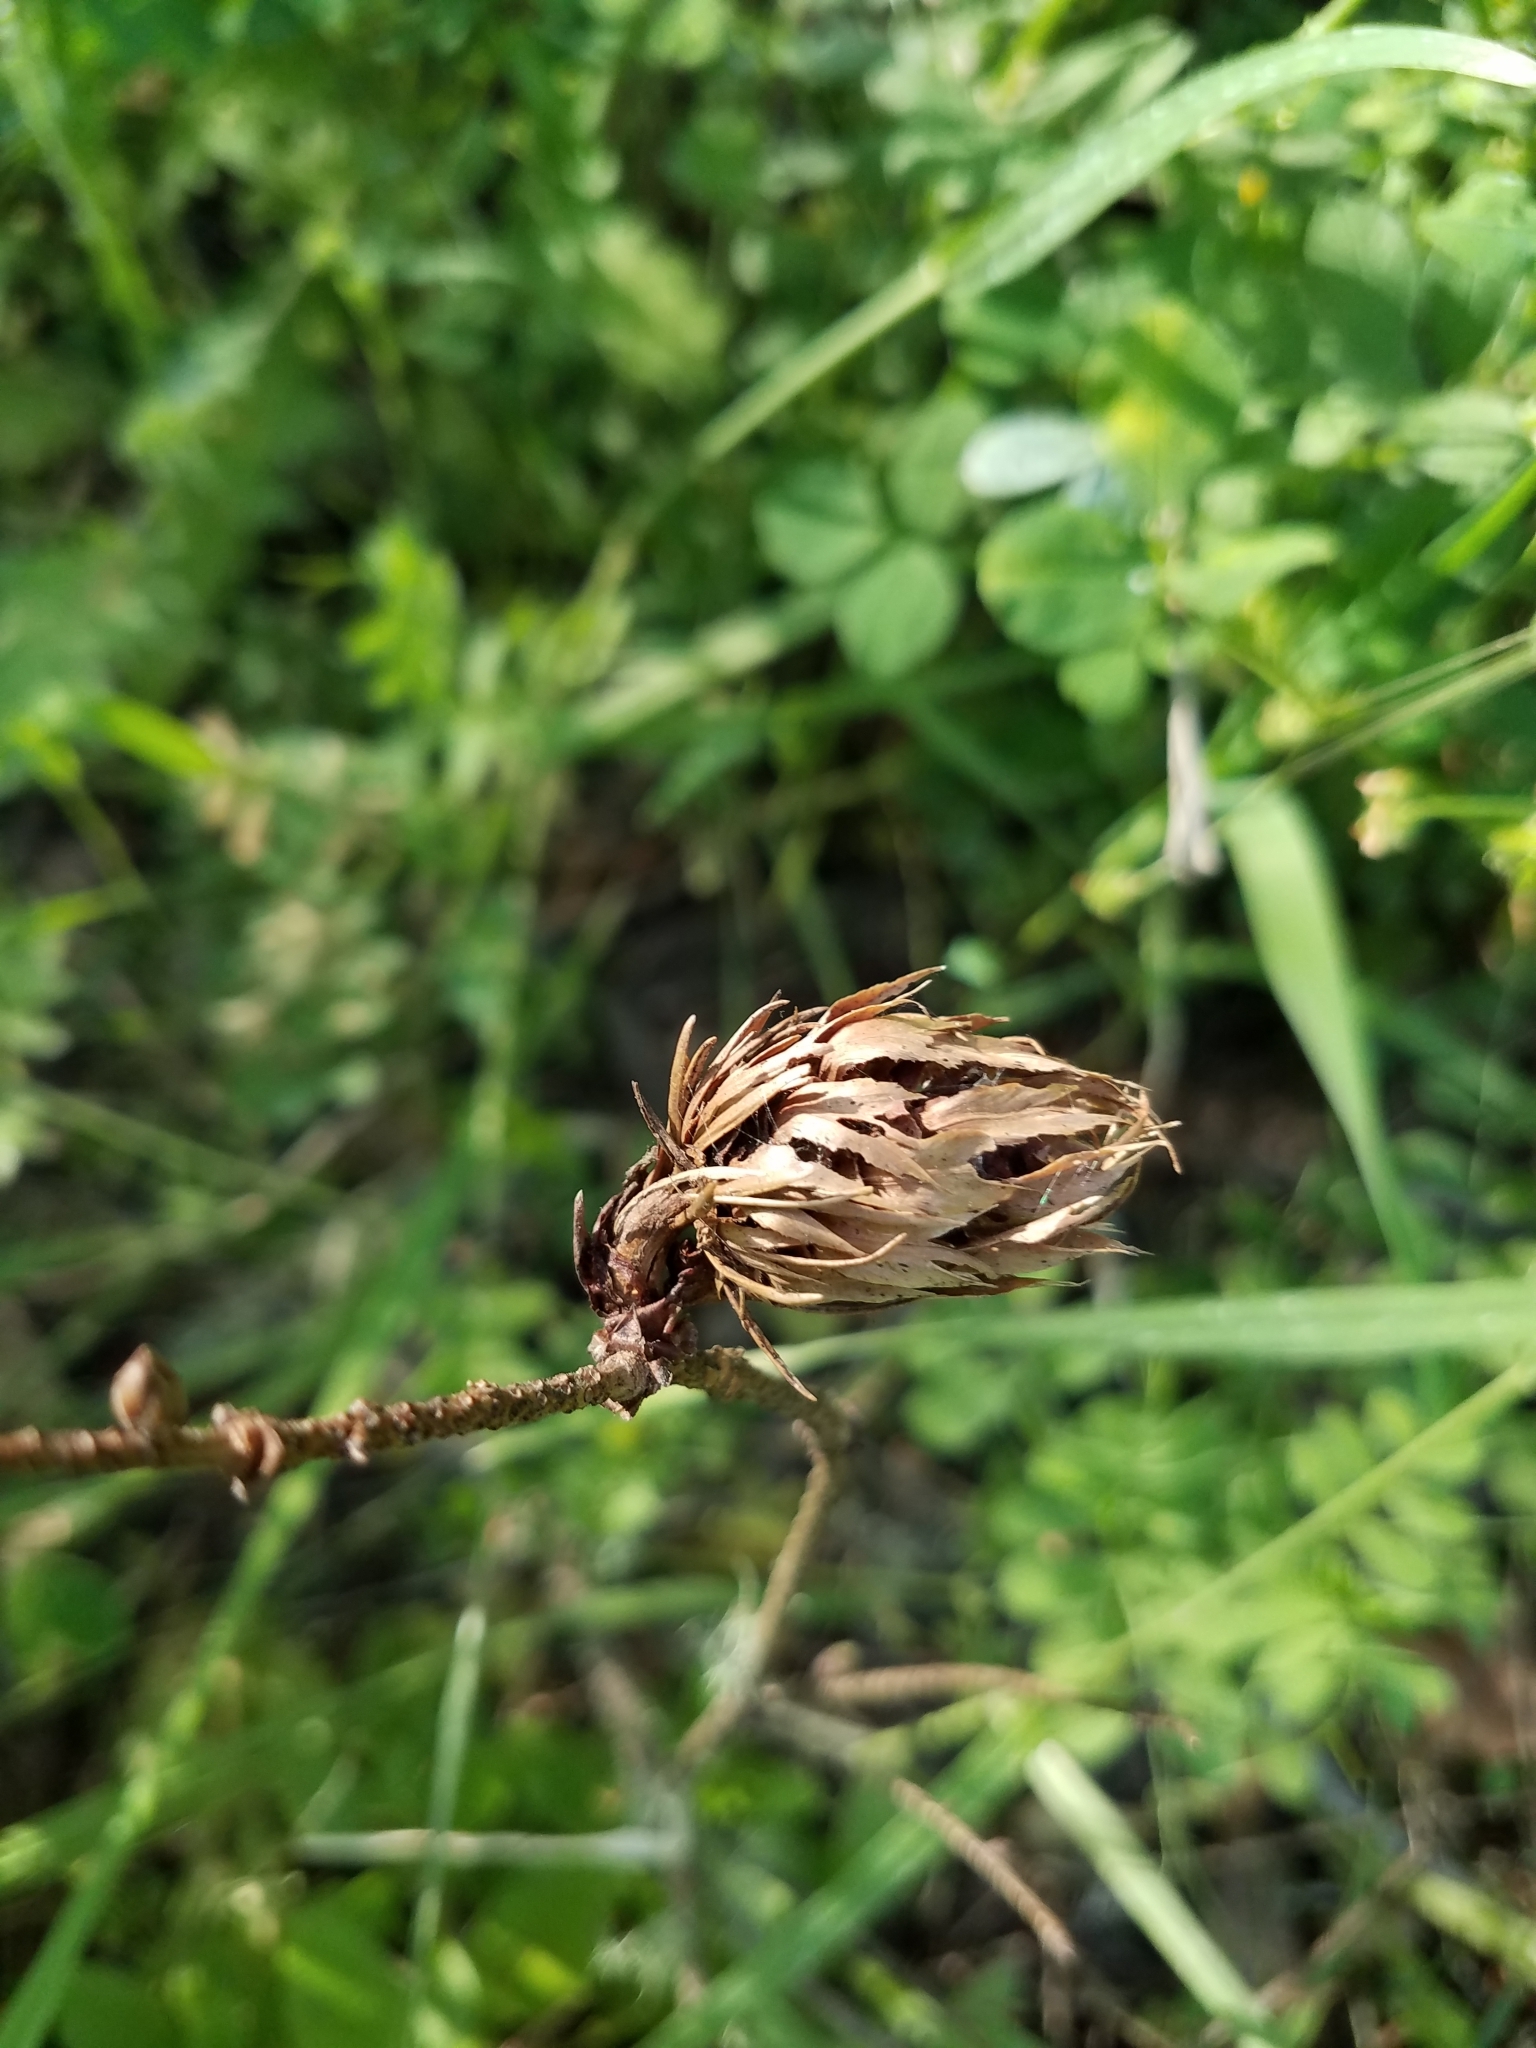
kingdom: Plantae
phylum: Tracheophyta
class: Pinopsida
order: Pinales
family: Pinaceae
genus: Pseudotsuga
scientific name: Pseudotsuga menziesii
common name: Douglas fir
